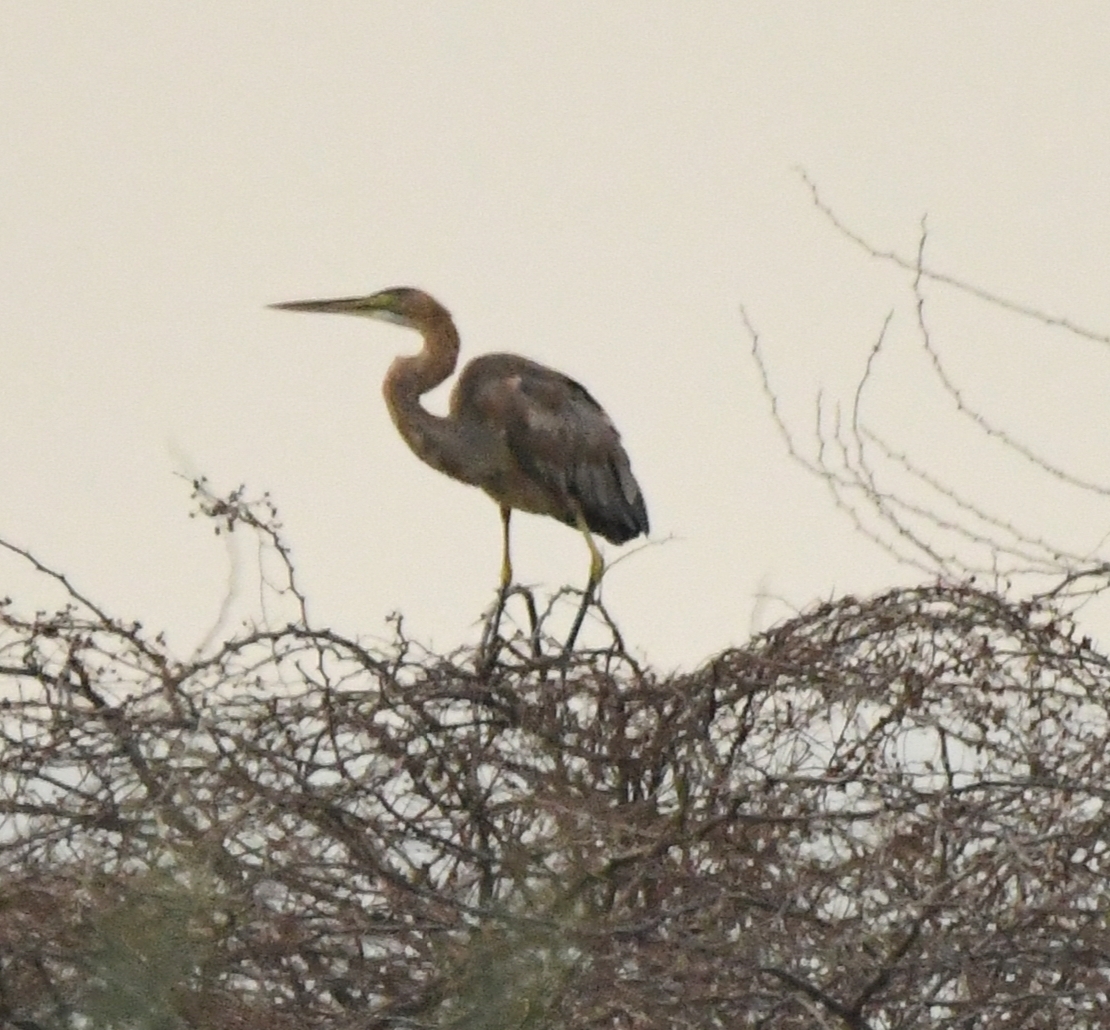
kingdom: Animalia
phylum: Chordata
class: Aves
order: Pelecaniformes
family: Ardeidae
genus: Ardea
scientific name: Ardea purpurea
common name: Purple heron
